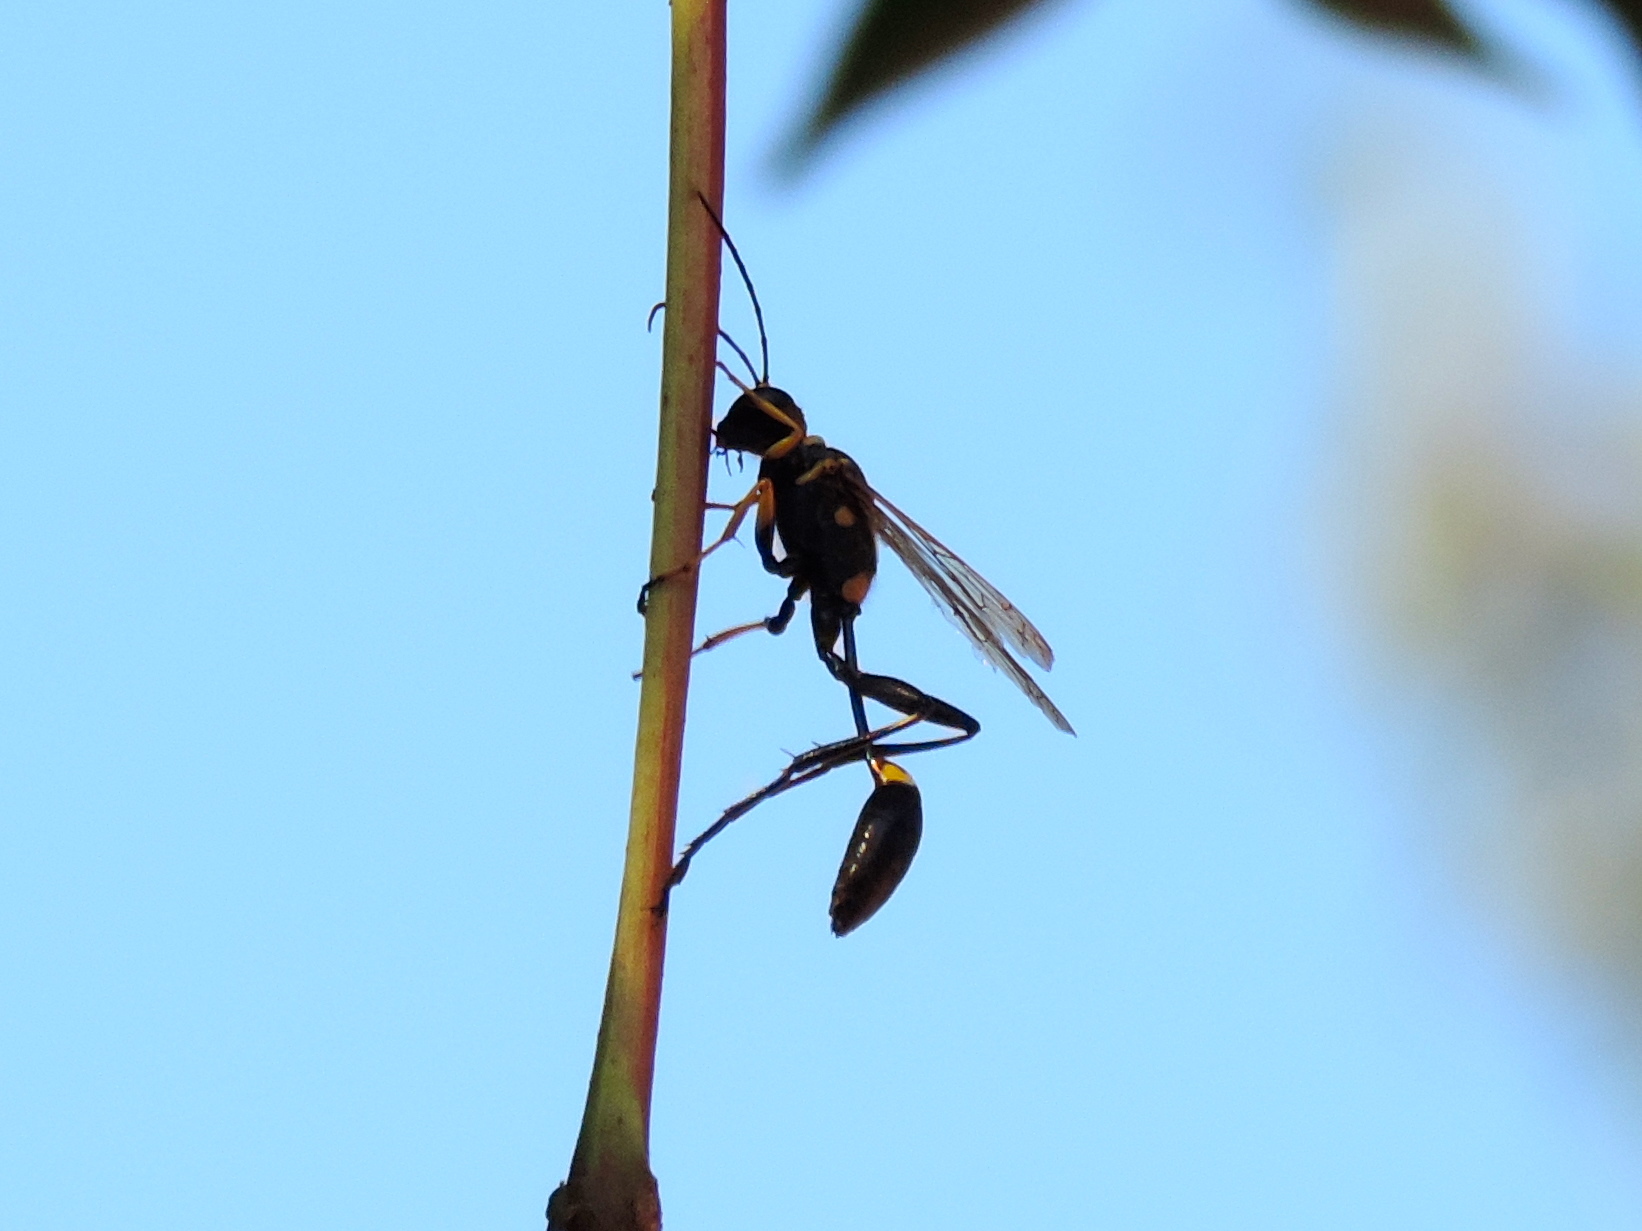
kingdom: Animalia
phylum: Arthropoda
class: Insecta
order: Hymenoptera
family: Sphecidae
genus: Sceliphron
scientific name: Sceliphron assimile
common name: Clayman's mud dauber
